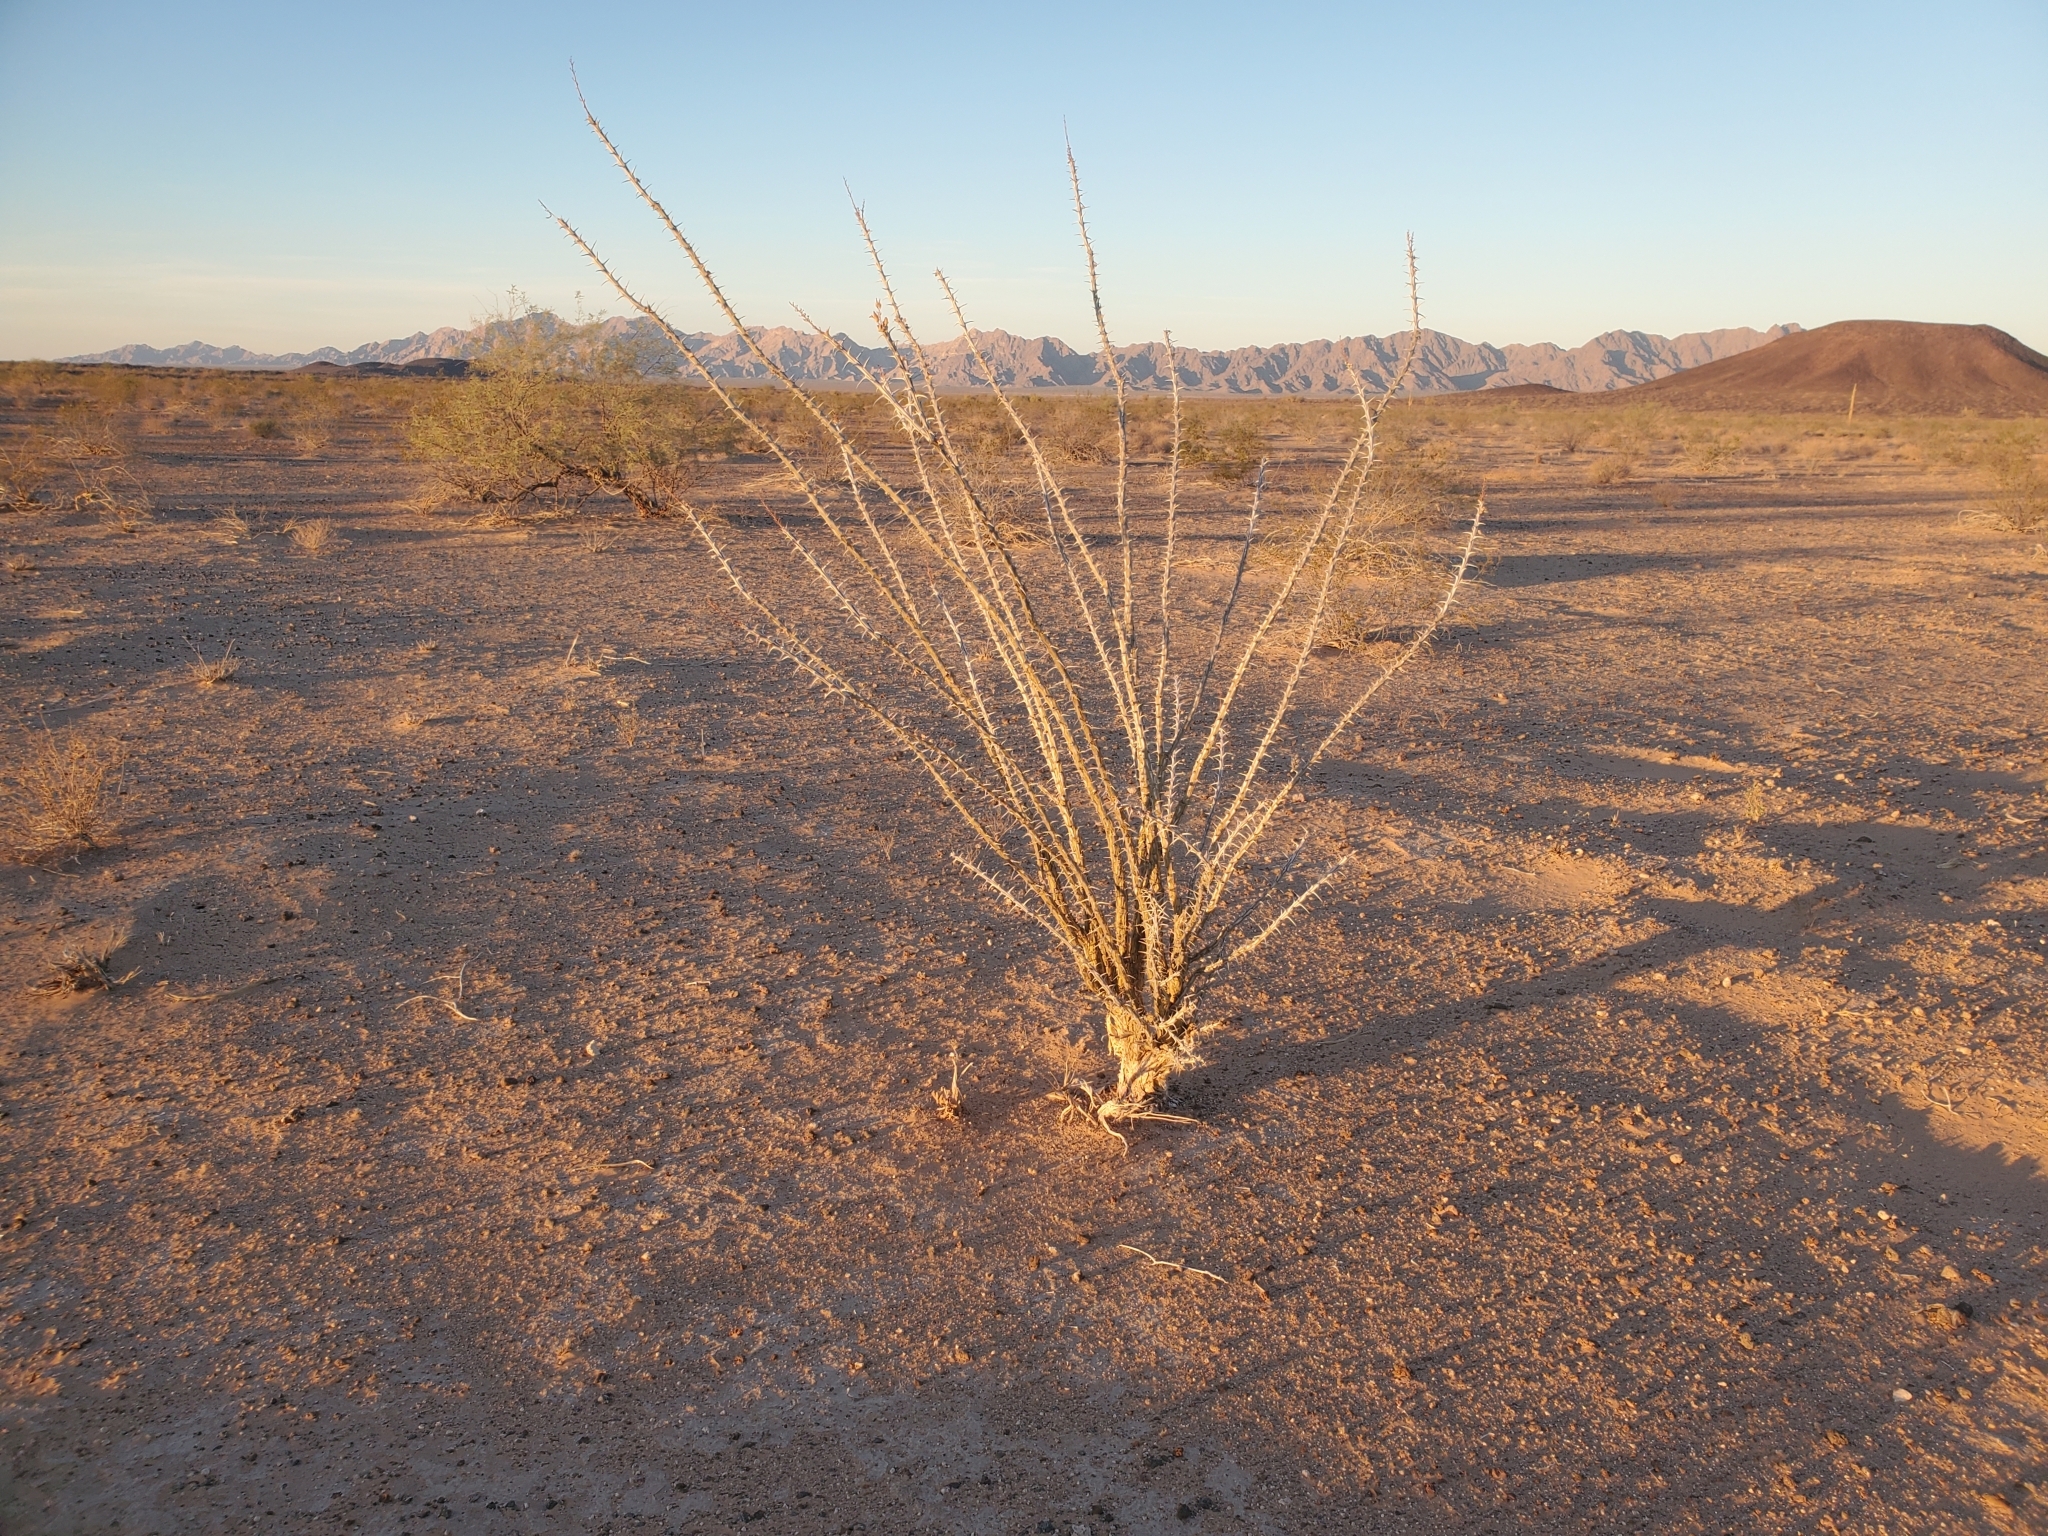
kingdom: Plantae
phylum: Tracheophyta
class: Magnoliopsida
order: Ericales
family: Fouquieriaceae
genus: Fouquieria
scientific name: Fouquieria splendens
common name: Vine-cactus
